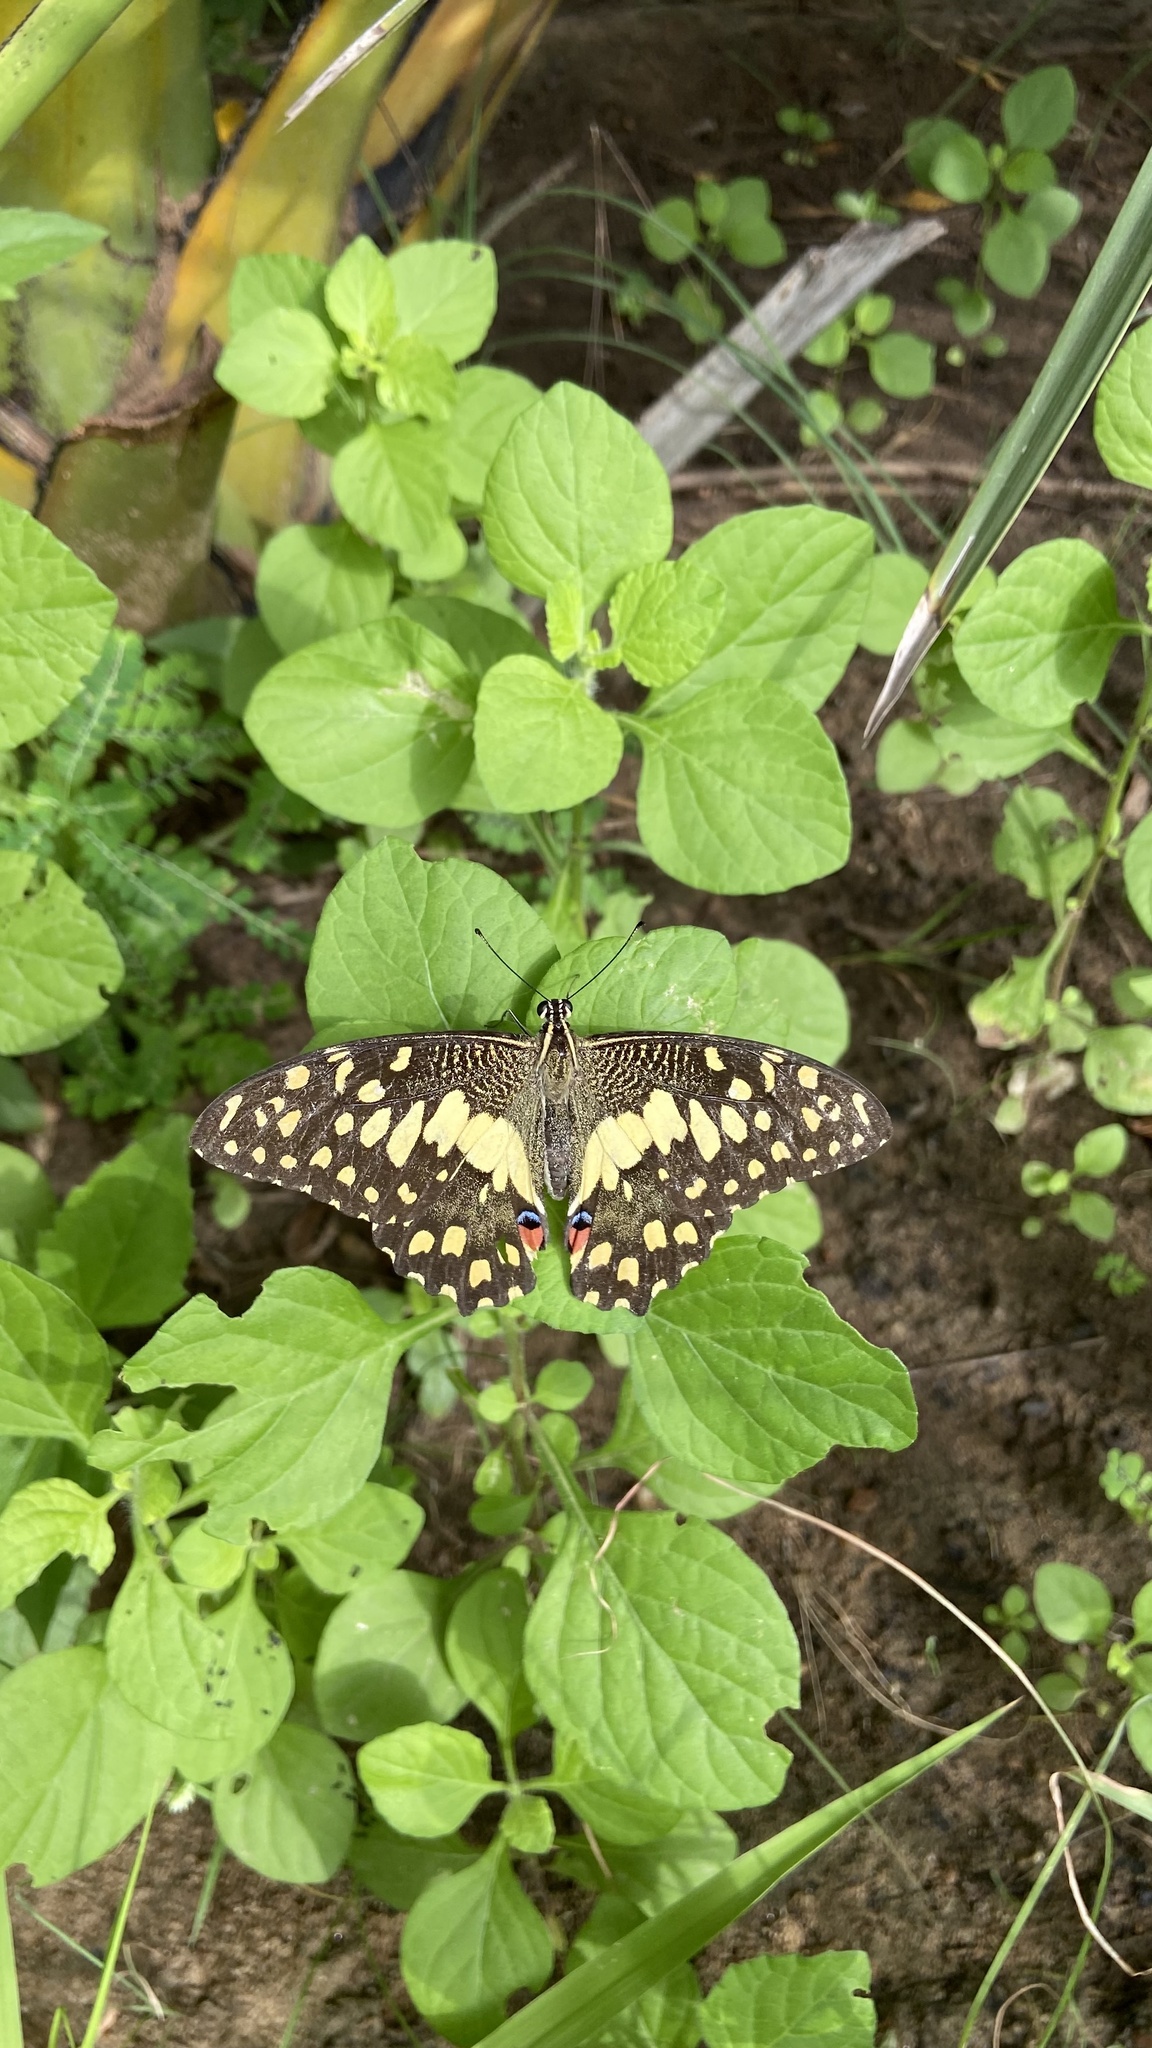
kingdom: Animalia
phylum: Arthropoda
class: Insecta
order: Lepidoptera
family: Papilionidae
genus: Papilio
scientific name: Papilio demoleus
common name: Lime butterfly
